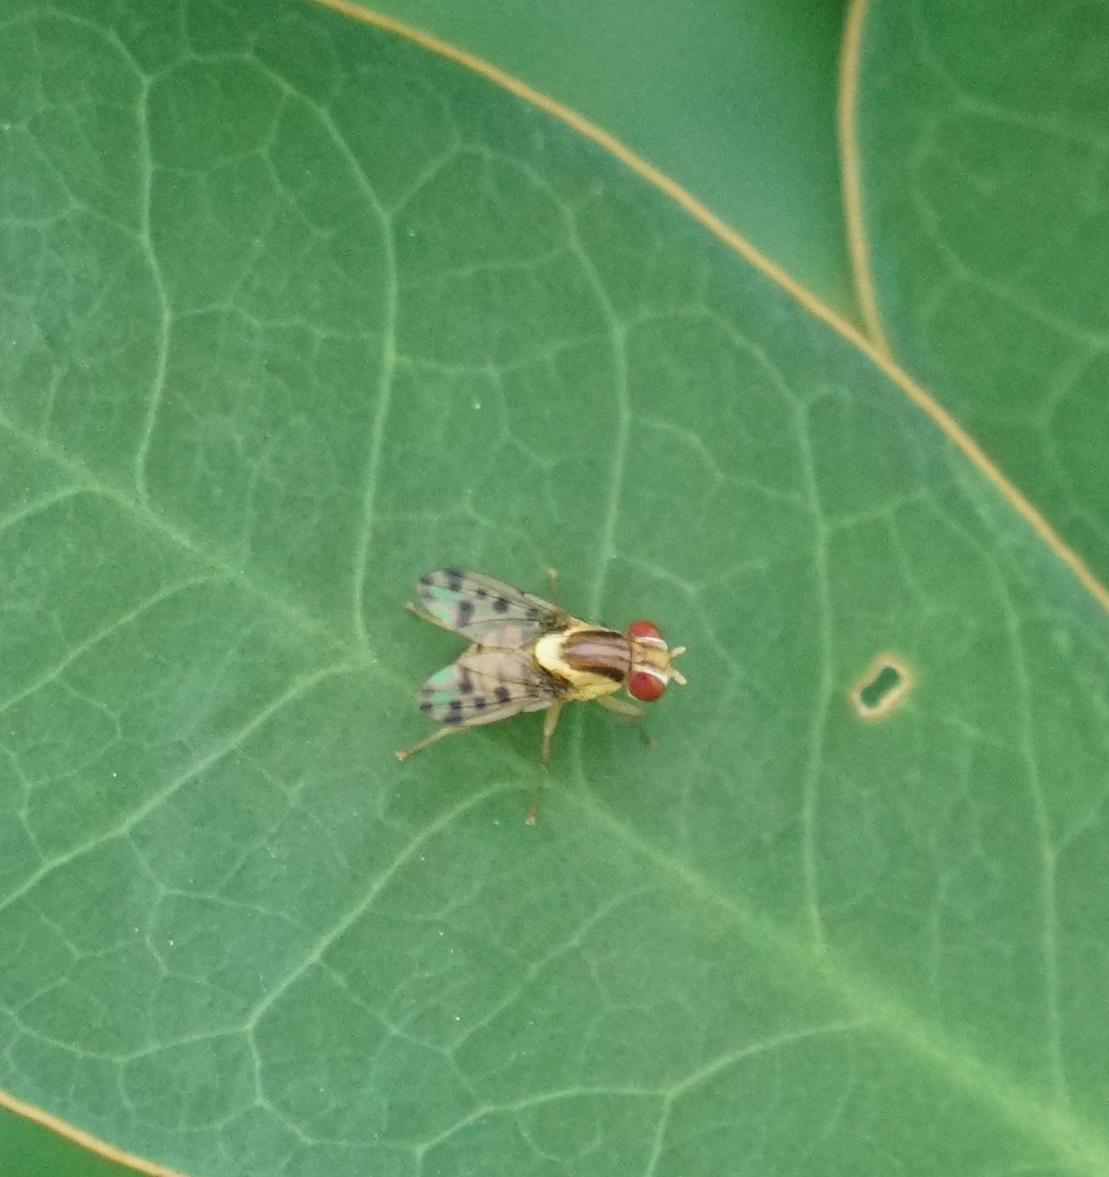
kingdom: Animalia
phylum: Arthropoda
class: Insecta
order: Diptera
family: Lauxaniidae
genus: Wawu
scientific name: Wawu queenslandensis
